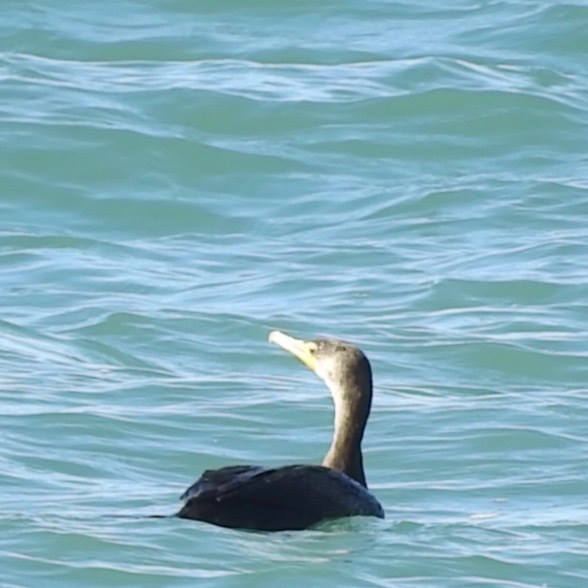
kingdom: Animalia
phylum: Chordata
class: Aves
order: Suliformes
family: Phalacrocoracidae
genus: Phalacrocorax
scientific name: Phalacrocorax auritus
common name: Double-crested cormorant
